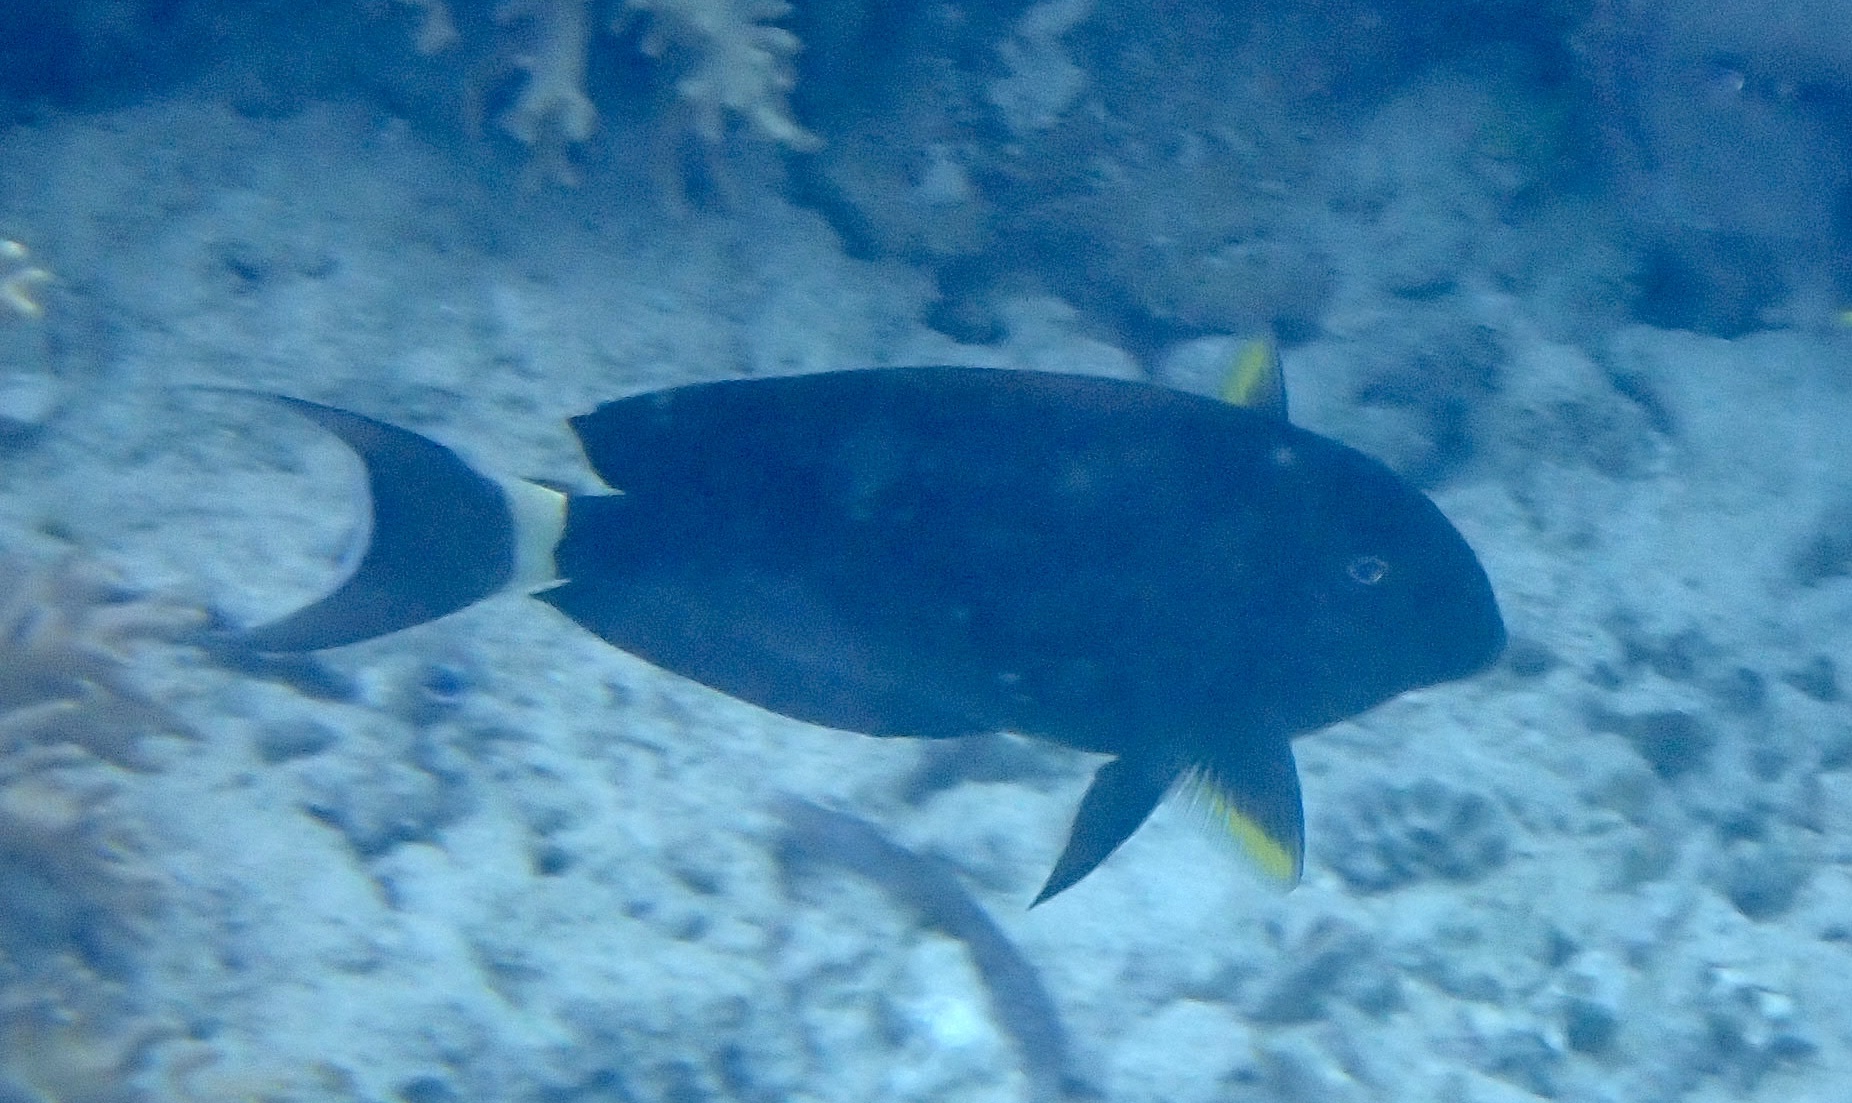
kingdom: Animalia
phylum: Chordata
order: Perciformes
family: Acanthuridae
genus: Acanthurus
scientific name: Acanthurus nigricauda
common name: Black-barred surgeonfish
